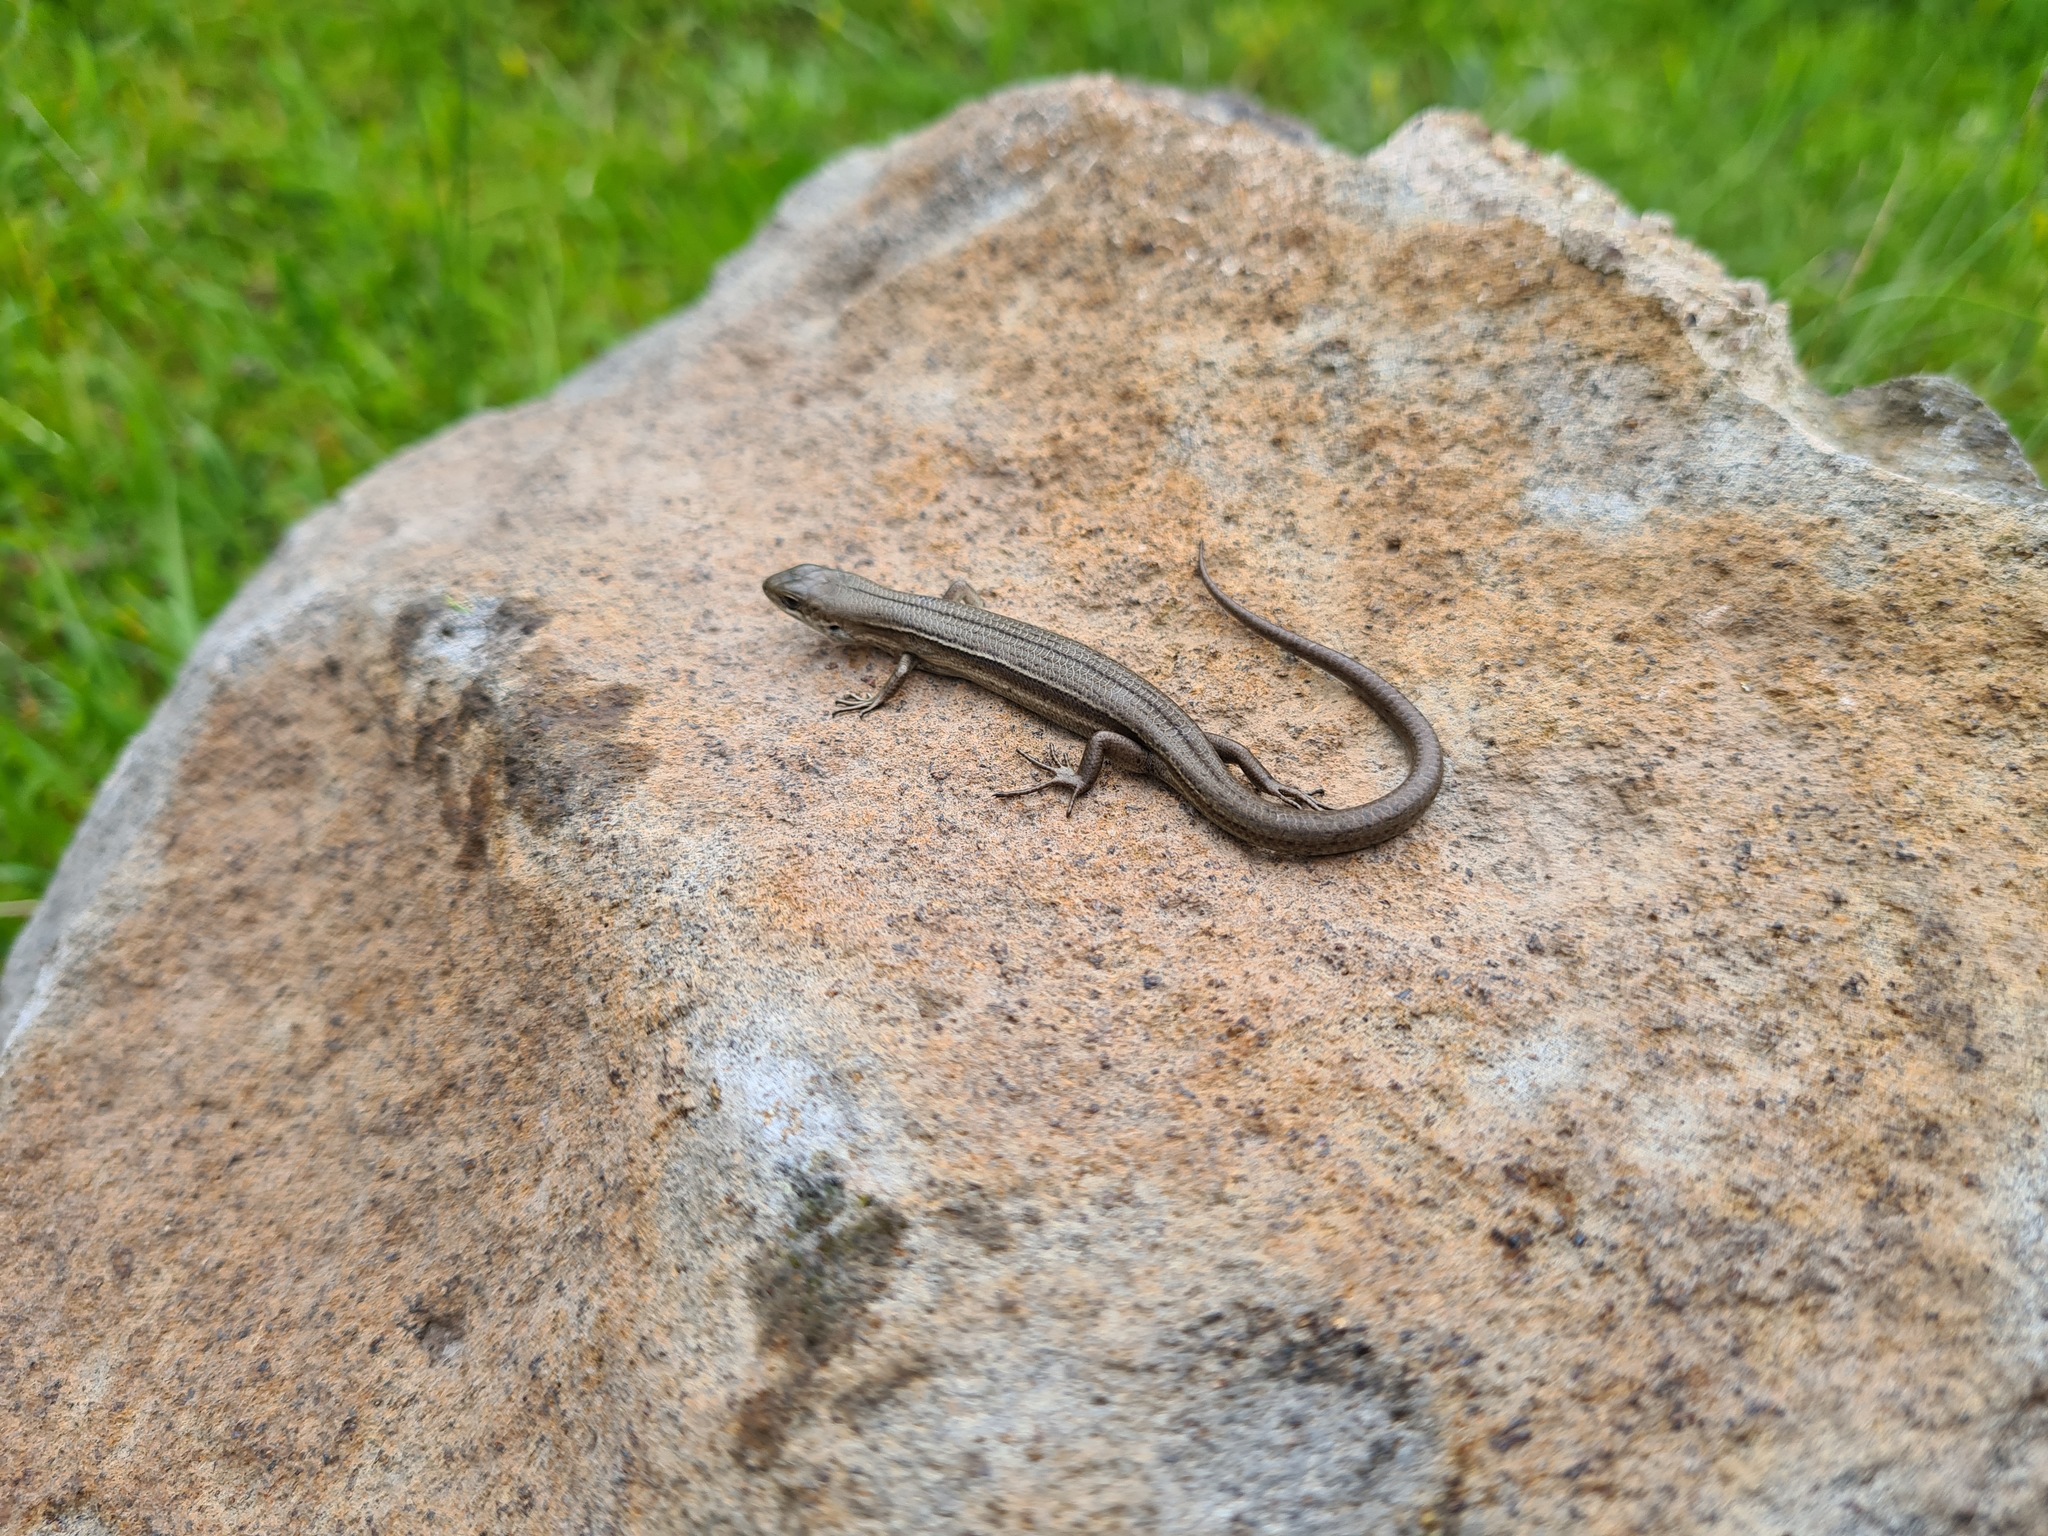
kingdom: Animalia
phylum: Chordata
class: Squamata
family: Scincidae
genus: Pseudemoia
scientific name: Pseudemoia pagenstecheri
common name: Southern grass tussock skink
